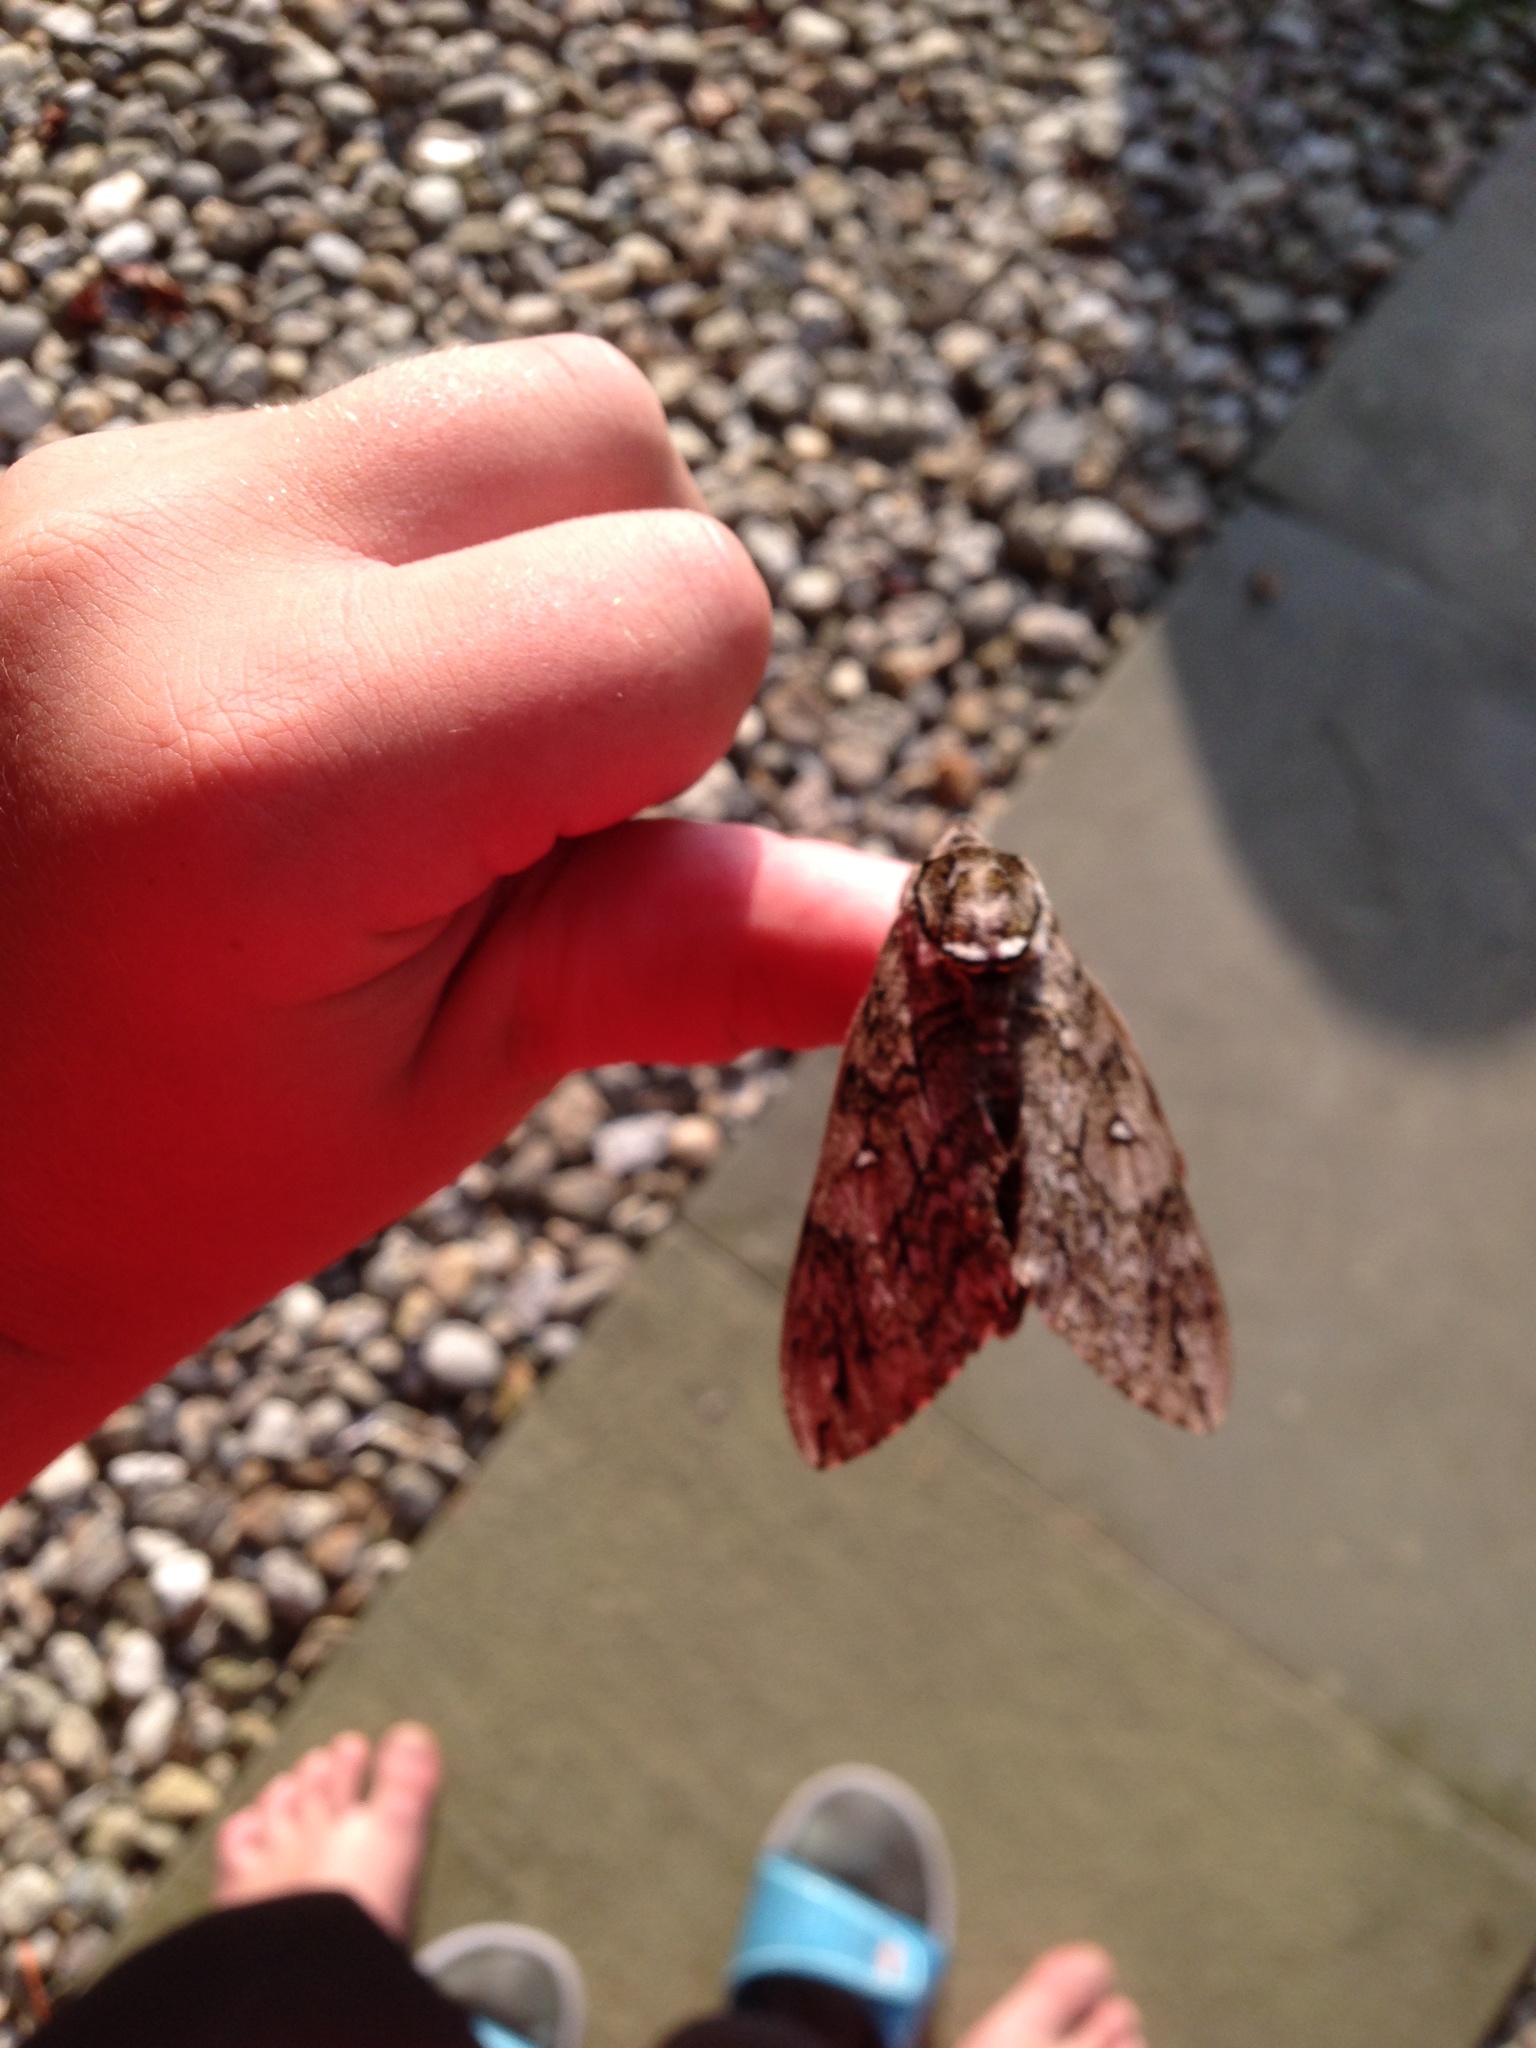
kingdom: Animalia
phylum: Arthropoda
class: Insecta
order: Lepidoptera
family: Sphingidae
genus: Ceratomia
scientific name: Ceratomia undulosa
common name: Waved sphinx
